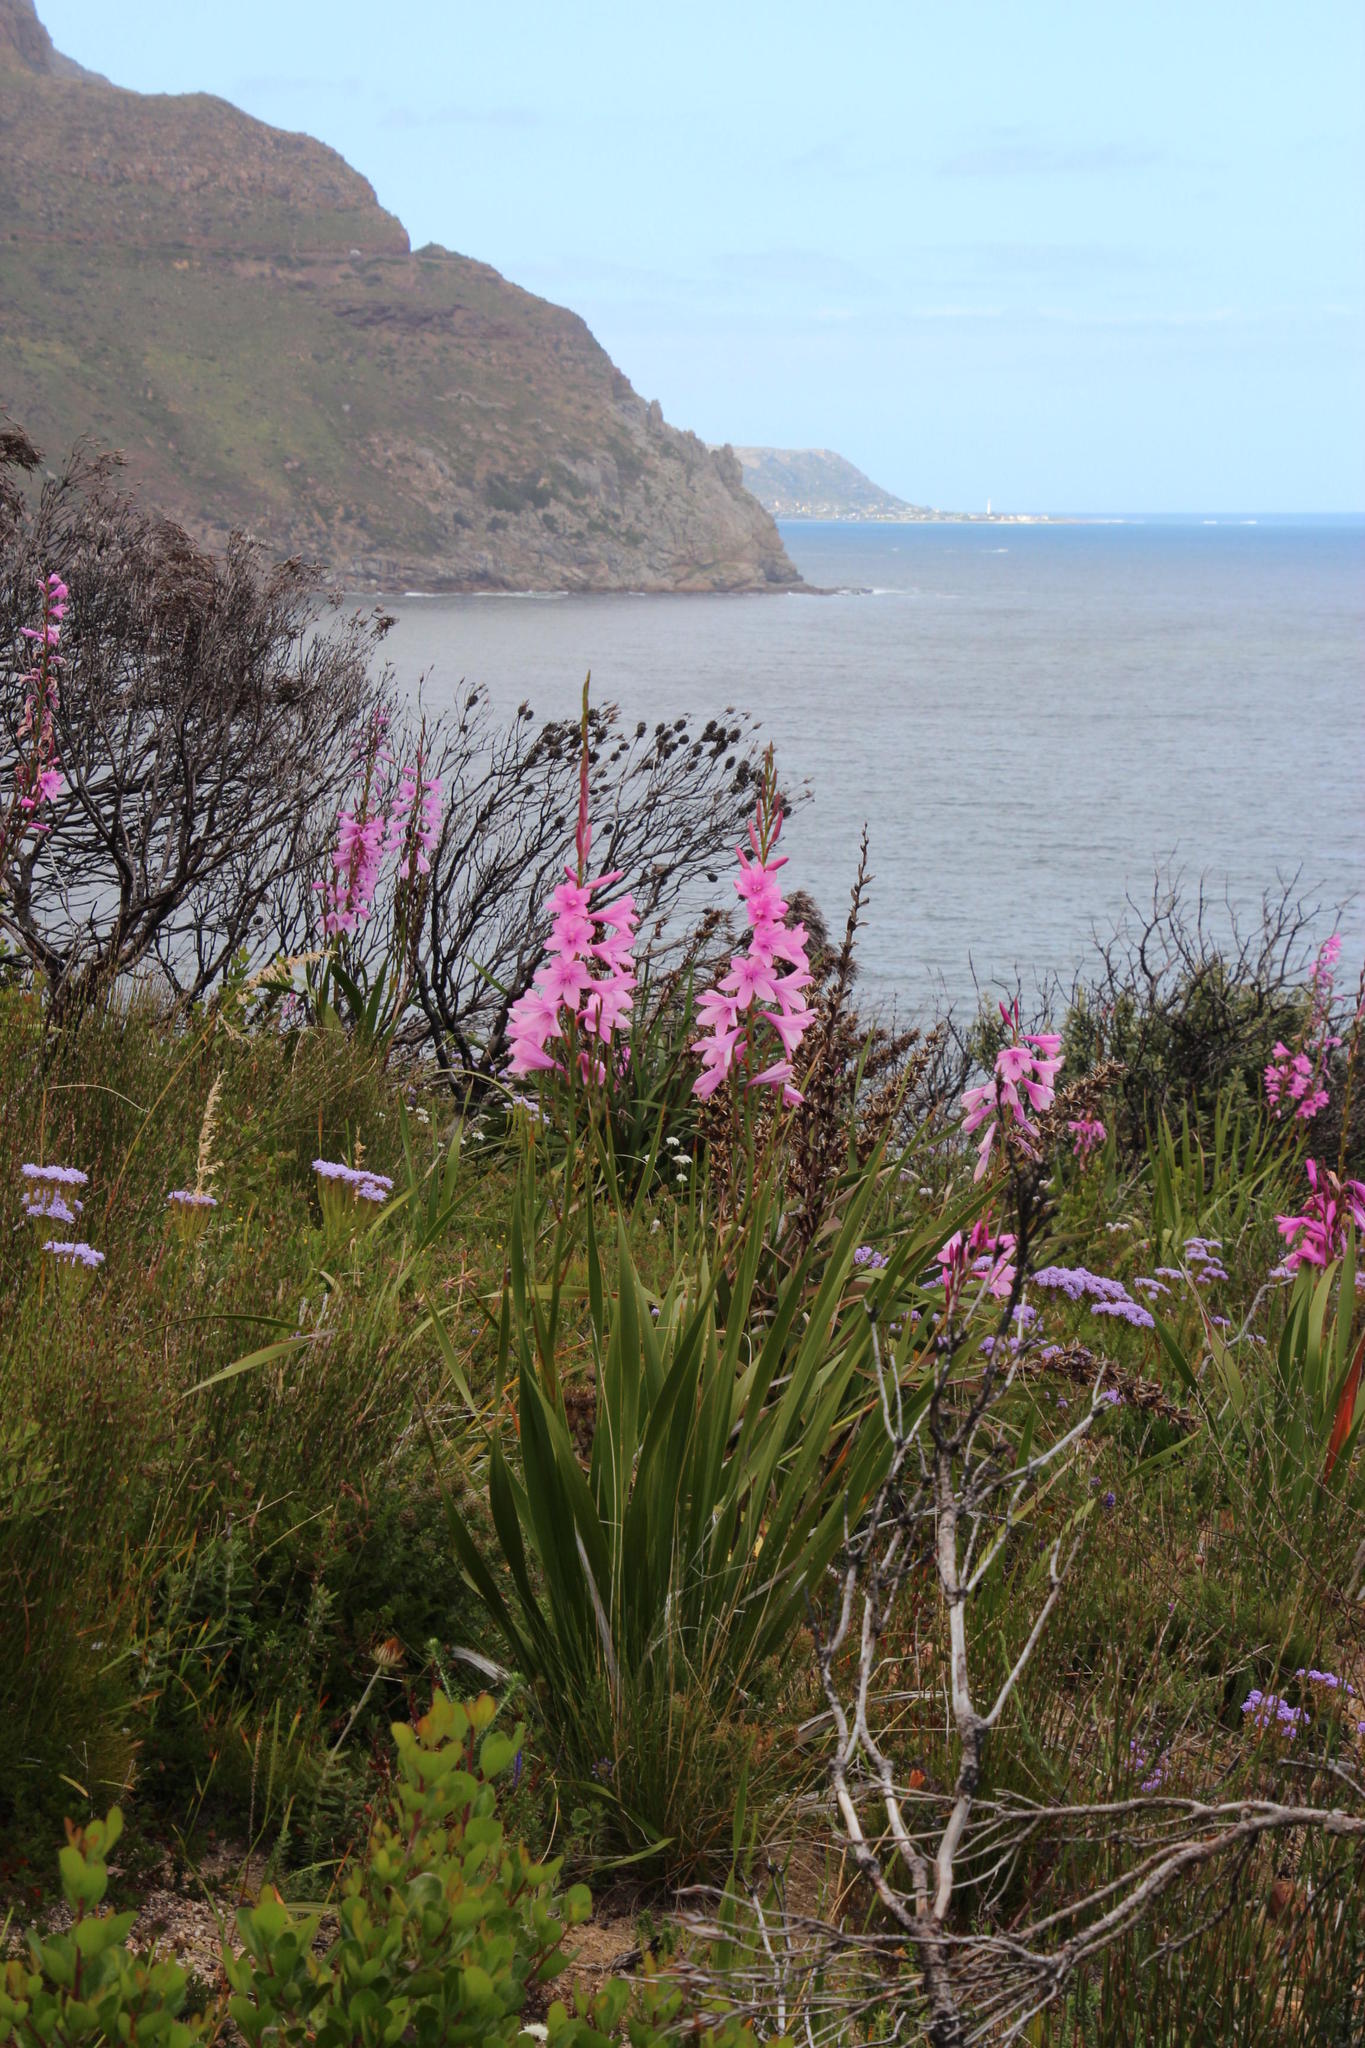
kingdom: Plantae
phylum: Tracheophyta
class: Liliopsida
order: Asparagales
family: Iridaceae
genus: Watsonia
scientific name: Watsonia borbonica
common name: Bugle-lily
